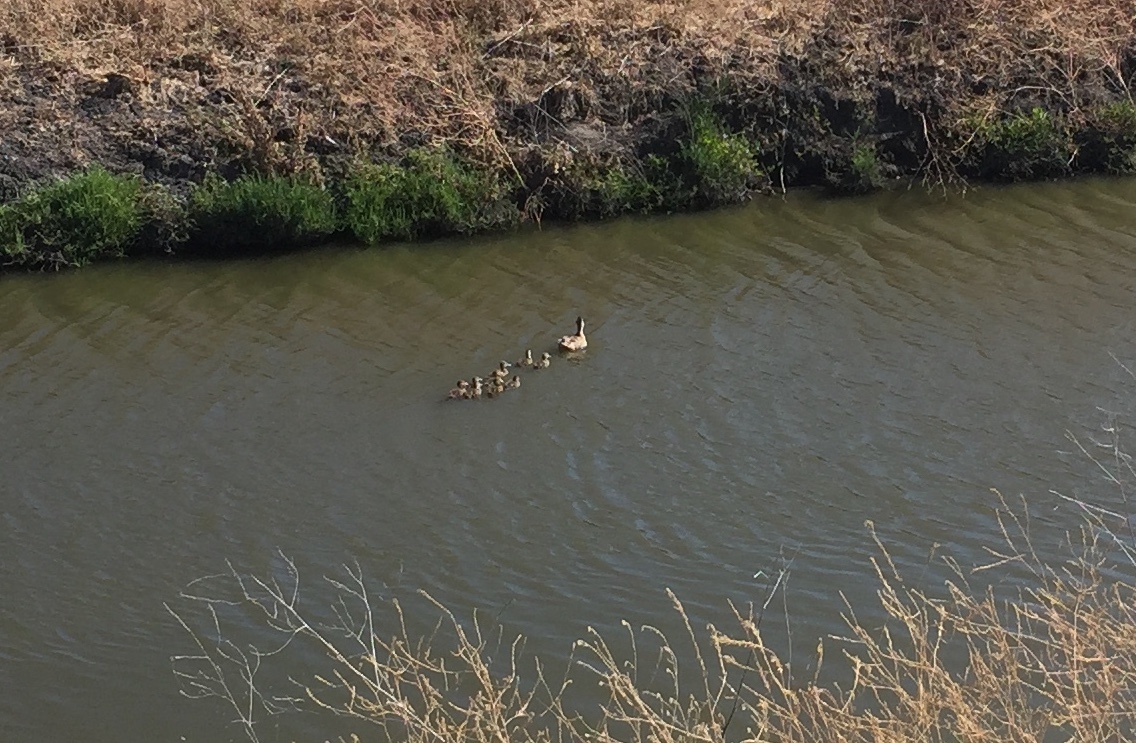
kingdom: Animalia
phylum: Chordata
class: Aves
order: Anseriformes
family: Anatidae
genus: Anas
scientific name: Anas platyrhynchos
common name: Mallard
